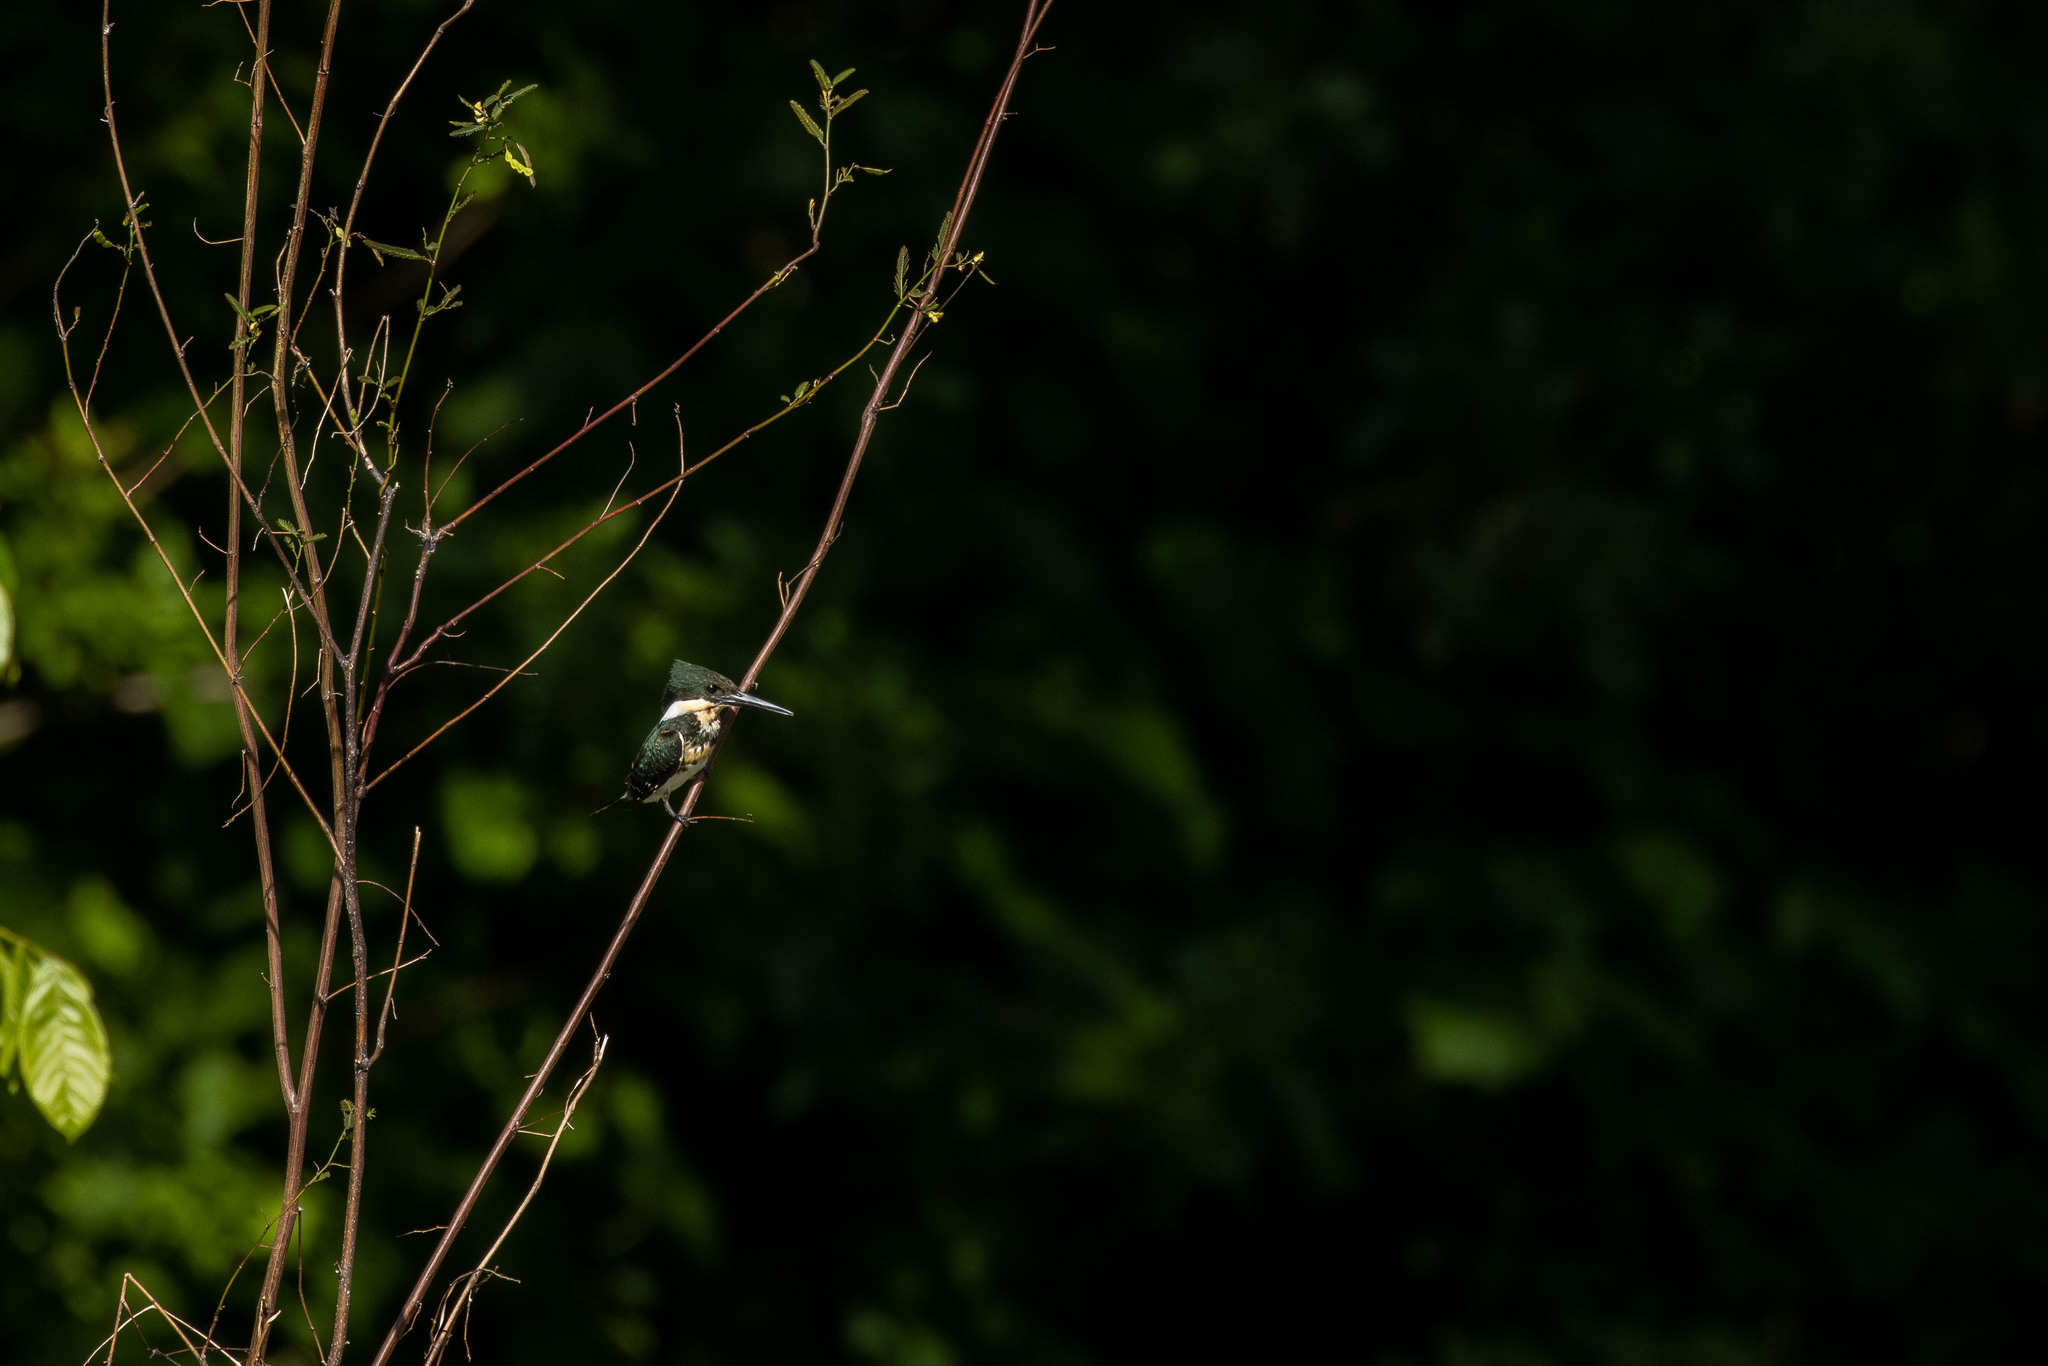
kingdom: Animalia
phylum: Chordata
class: Aves
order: Coraciiformes
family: Alcedinidae
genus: Chloroceryle
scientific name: Chloroceryle americana
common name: Green kingfisher
